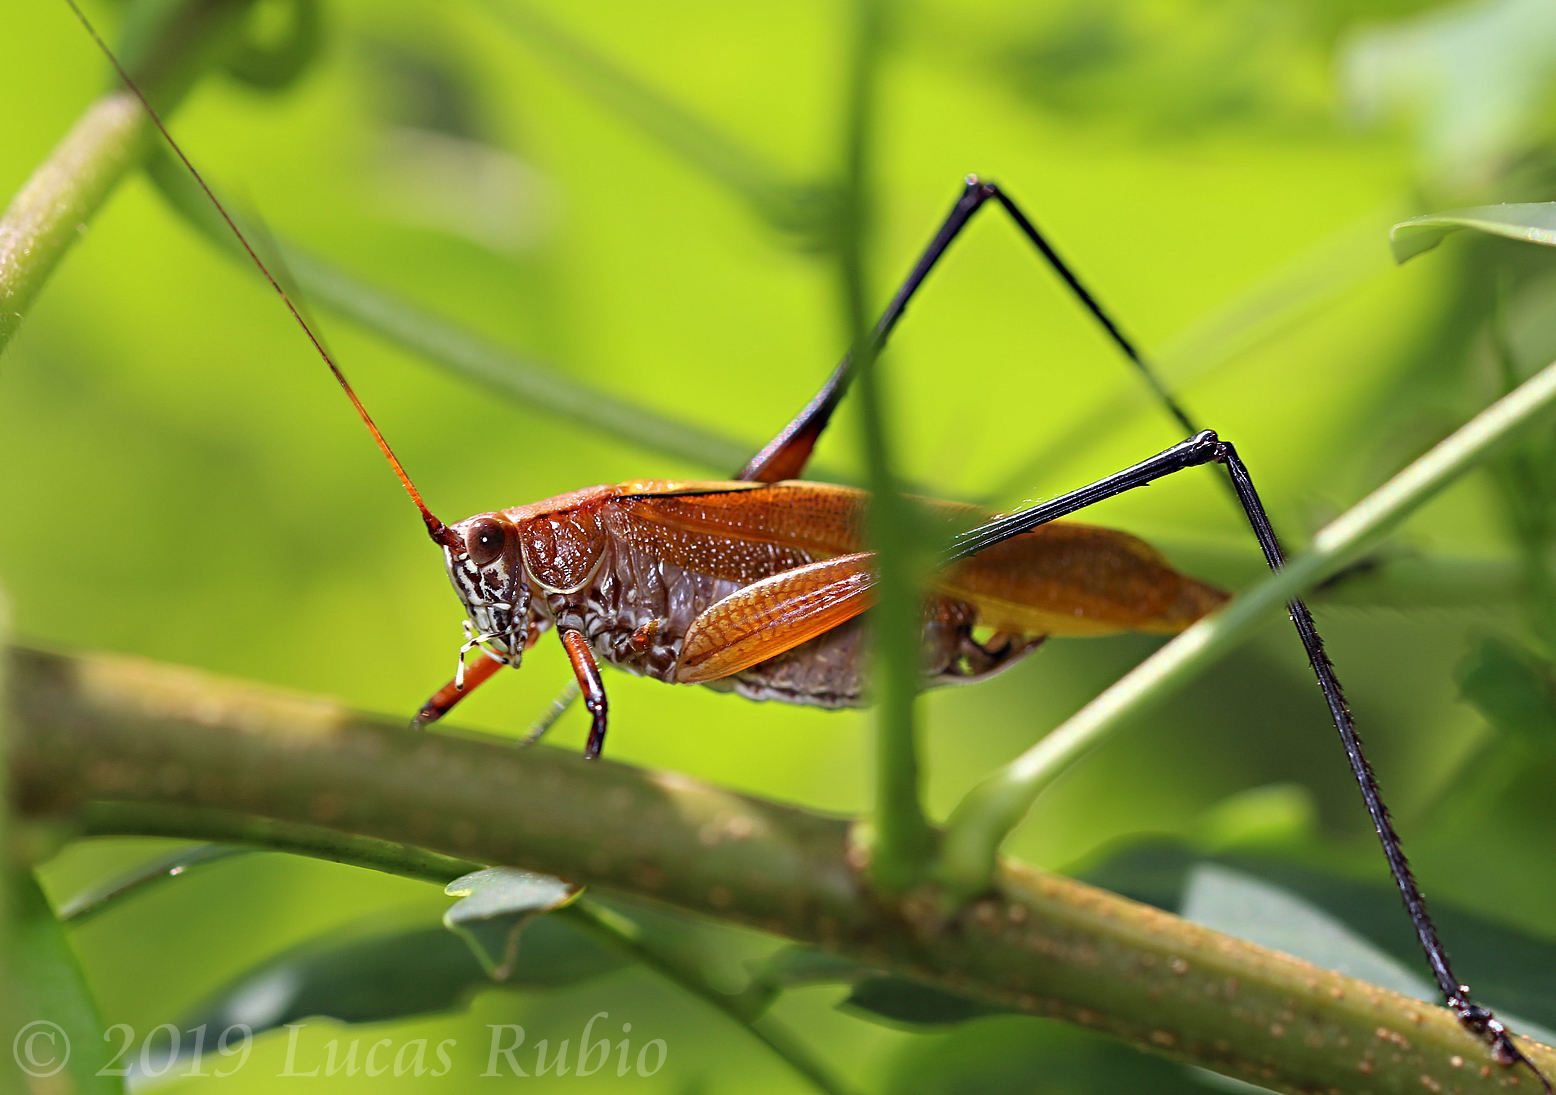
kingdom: Animalia
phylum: Arthropoda
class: Insecta
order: Orthoptera
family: Tettigoniidae
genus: Theudoria
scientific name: Theudoria melanocnemis
